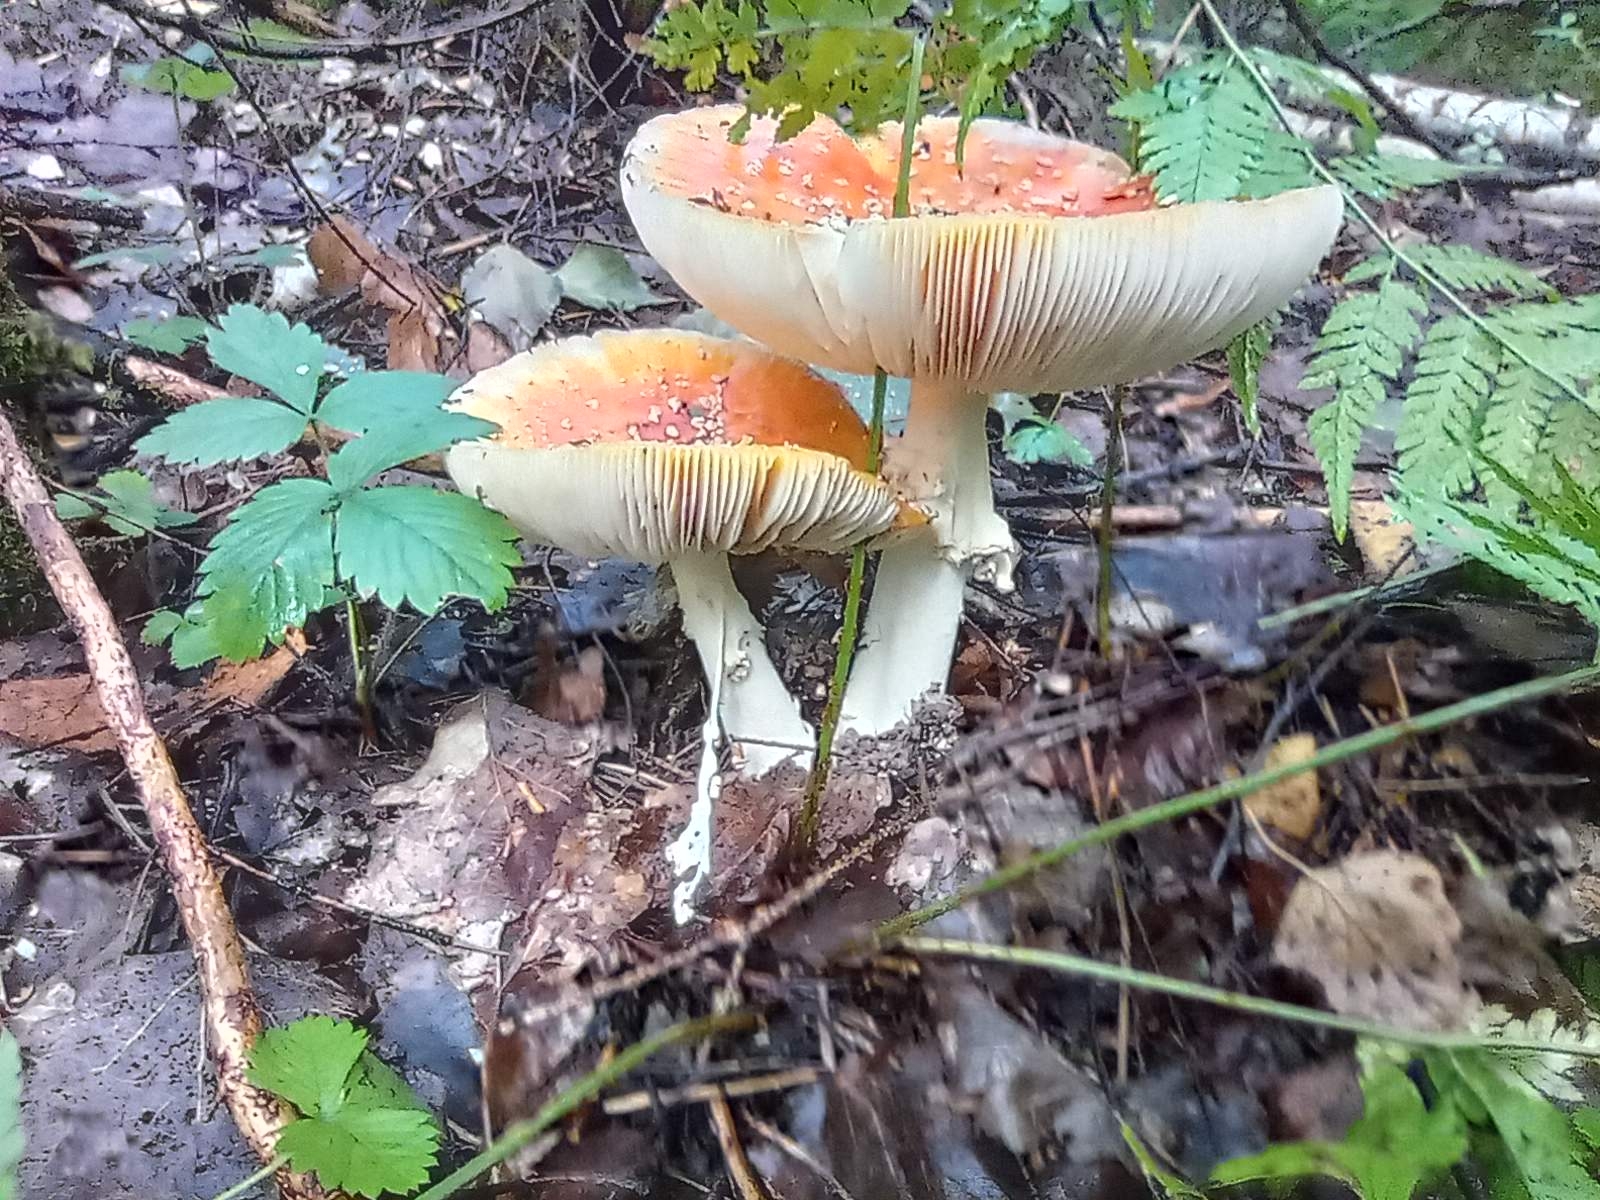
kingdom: Fungi
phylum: Basidiomycota
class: Agaricomycetes
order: Agaricales
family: Amanitaceae
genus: Amanita
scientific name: Amanita muscaria
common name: Fly agaric
